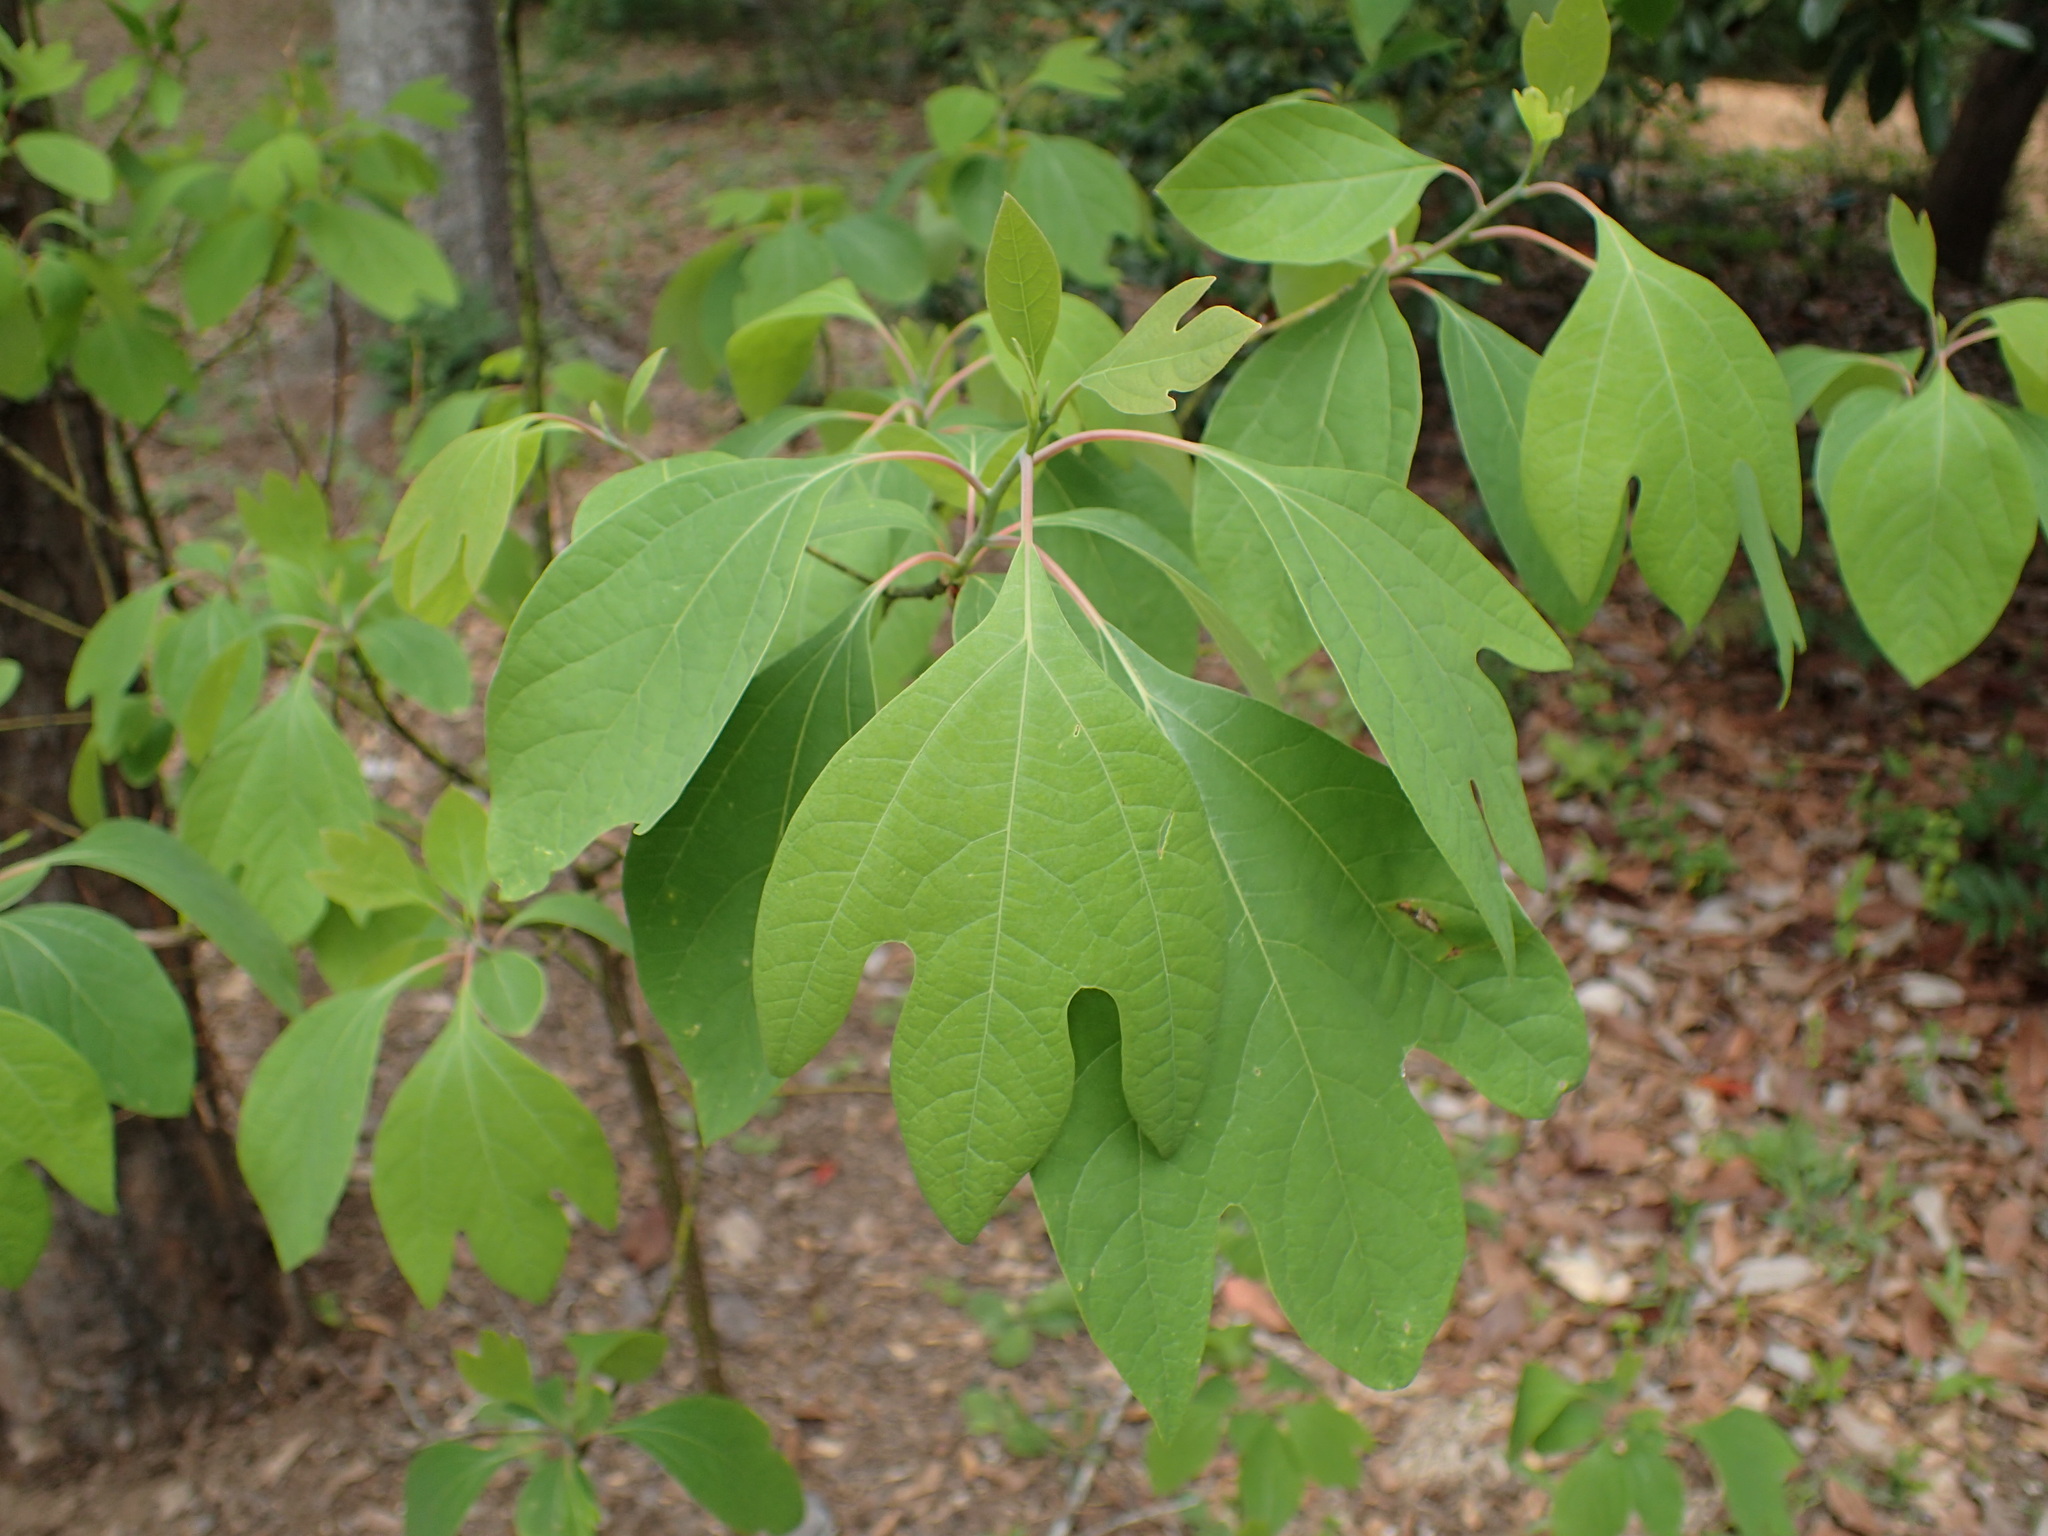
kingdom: Plantae
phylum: Tracheophyta
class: Magnoliopsida
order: Laurales
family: Lauraceae
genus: Sassafras
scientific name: Sassafras albidum
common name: Sassafras
